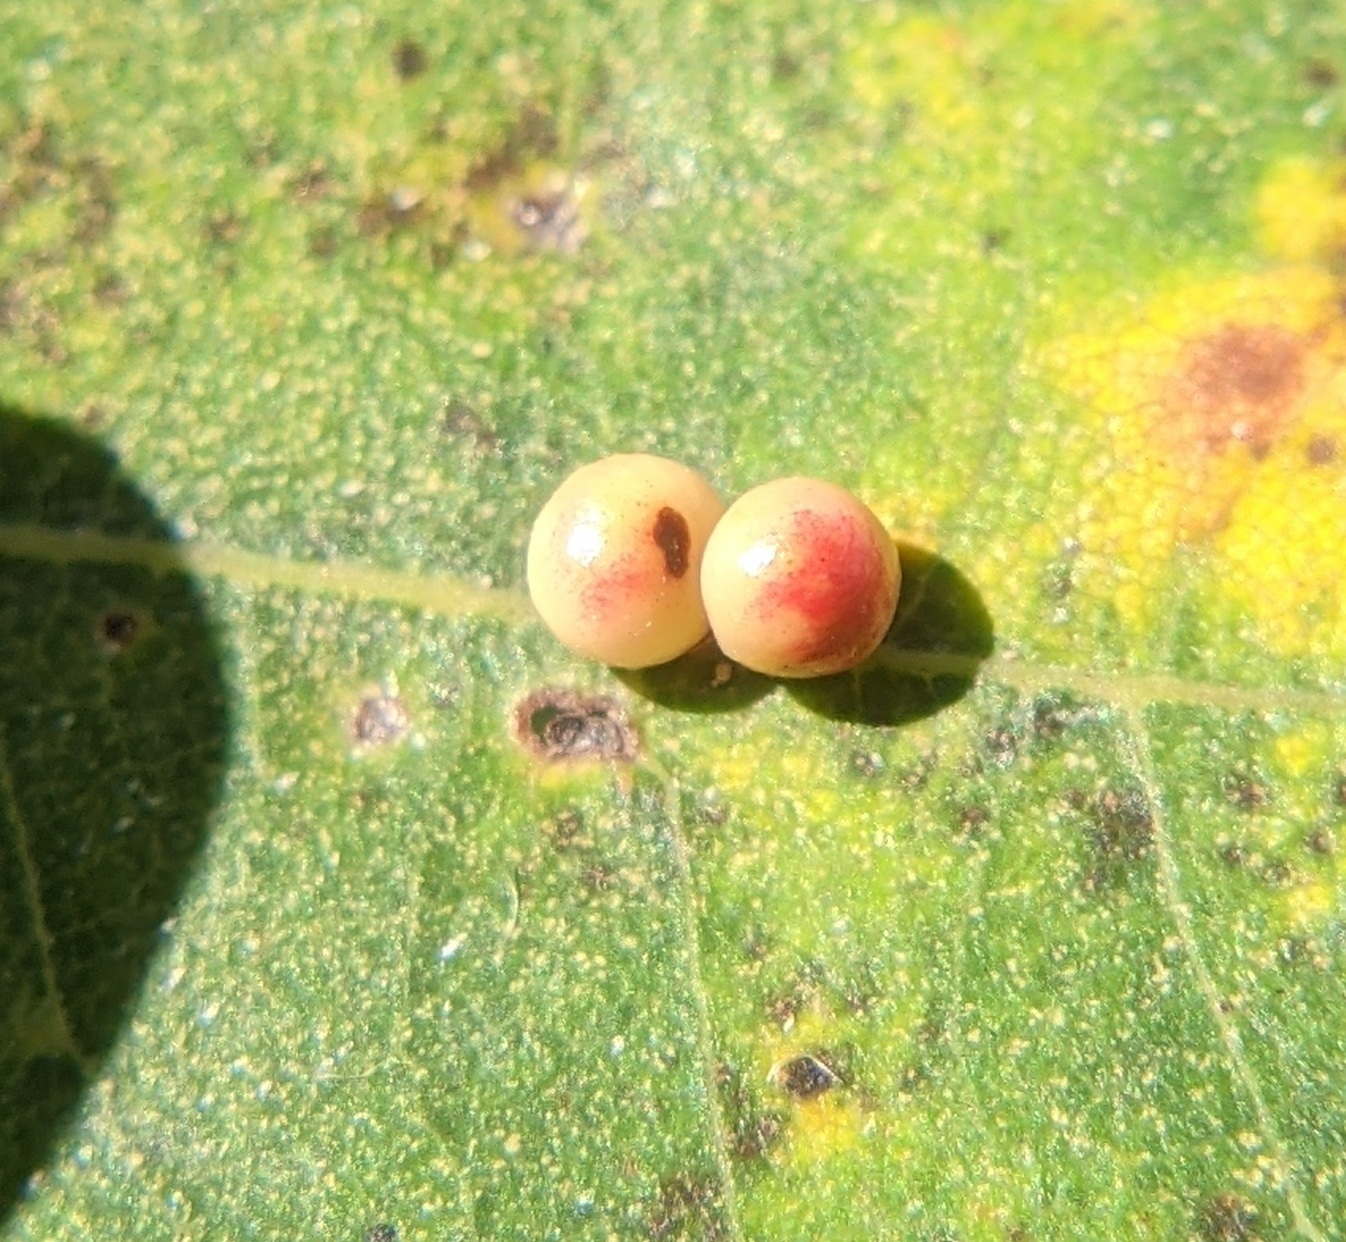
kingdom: Animalia
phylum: Arthropoda
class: Insecta
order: Hymenoptera
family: Cynipidae
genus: Zopheroteras
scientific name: Zopheroteras
